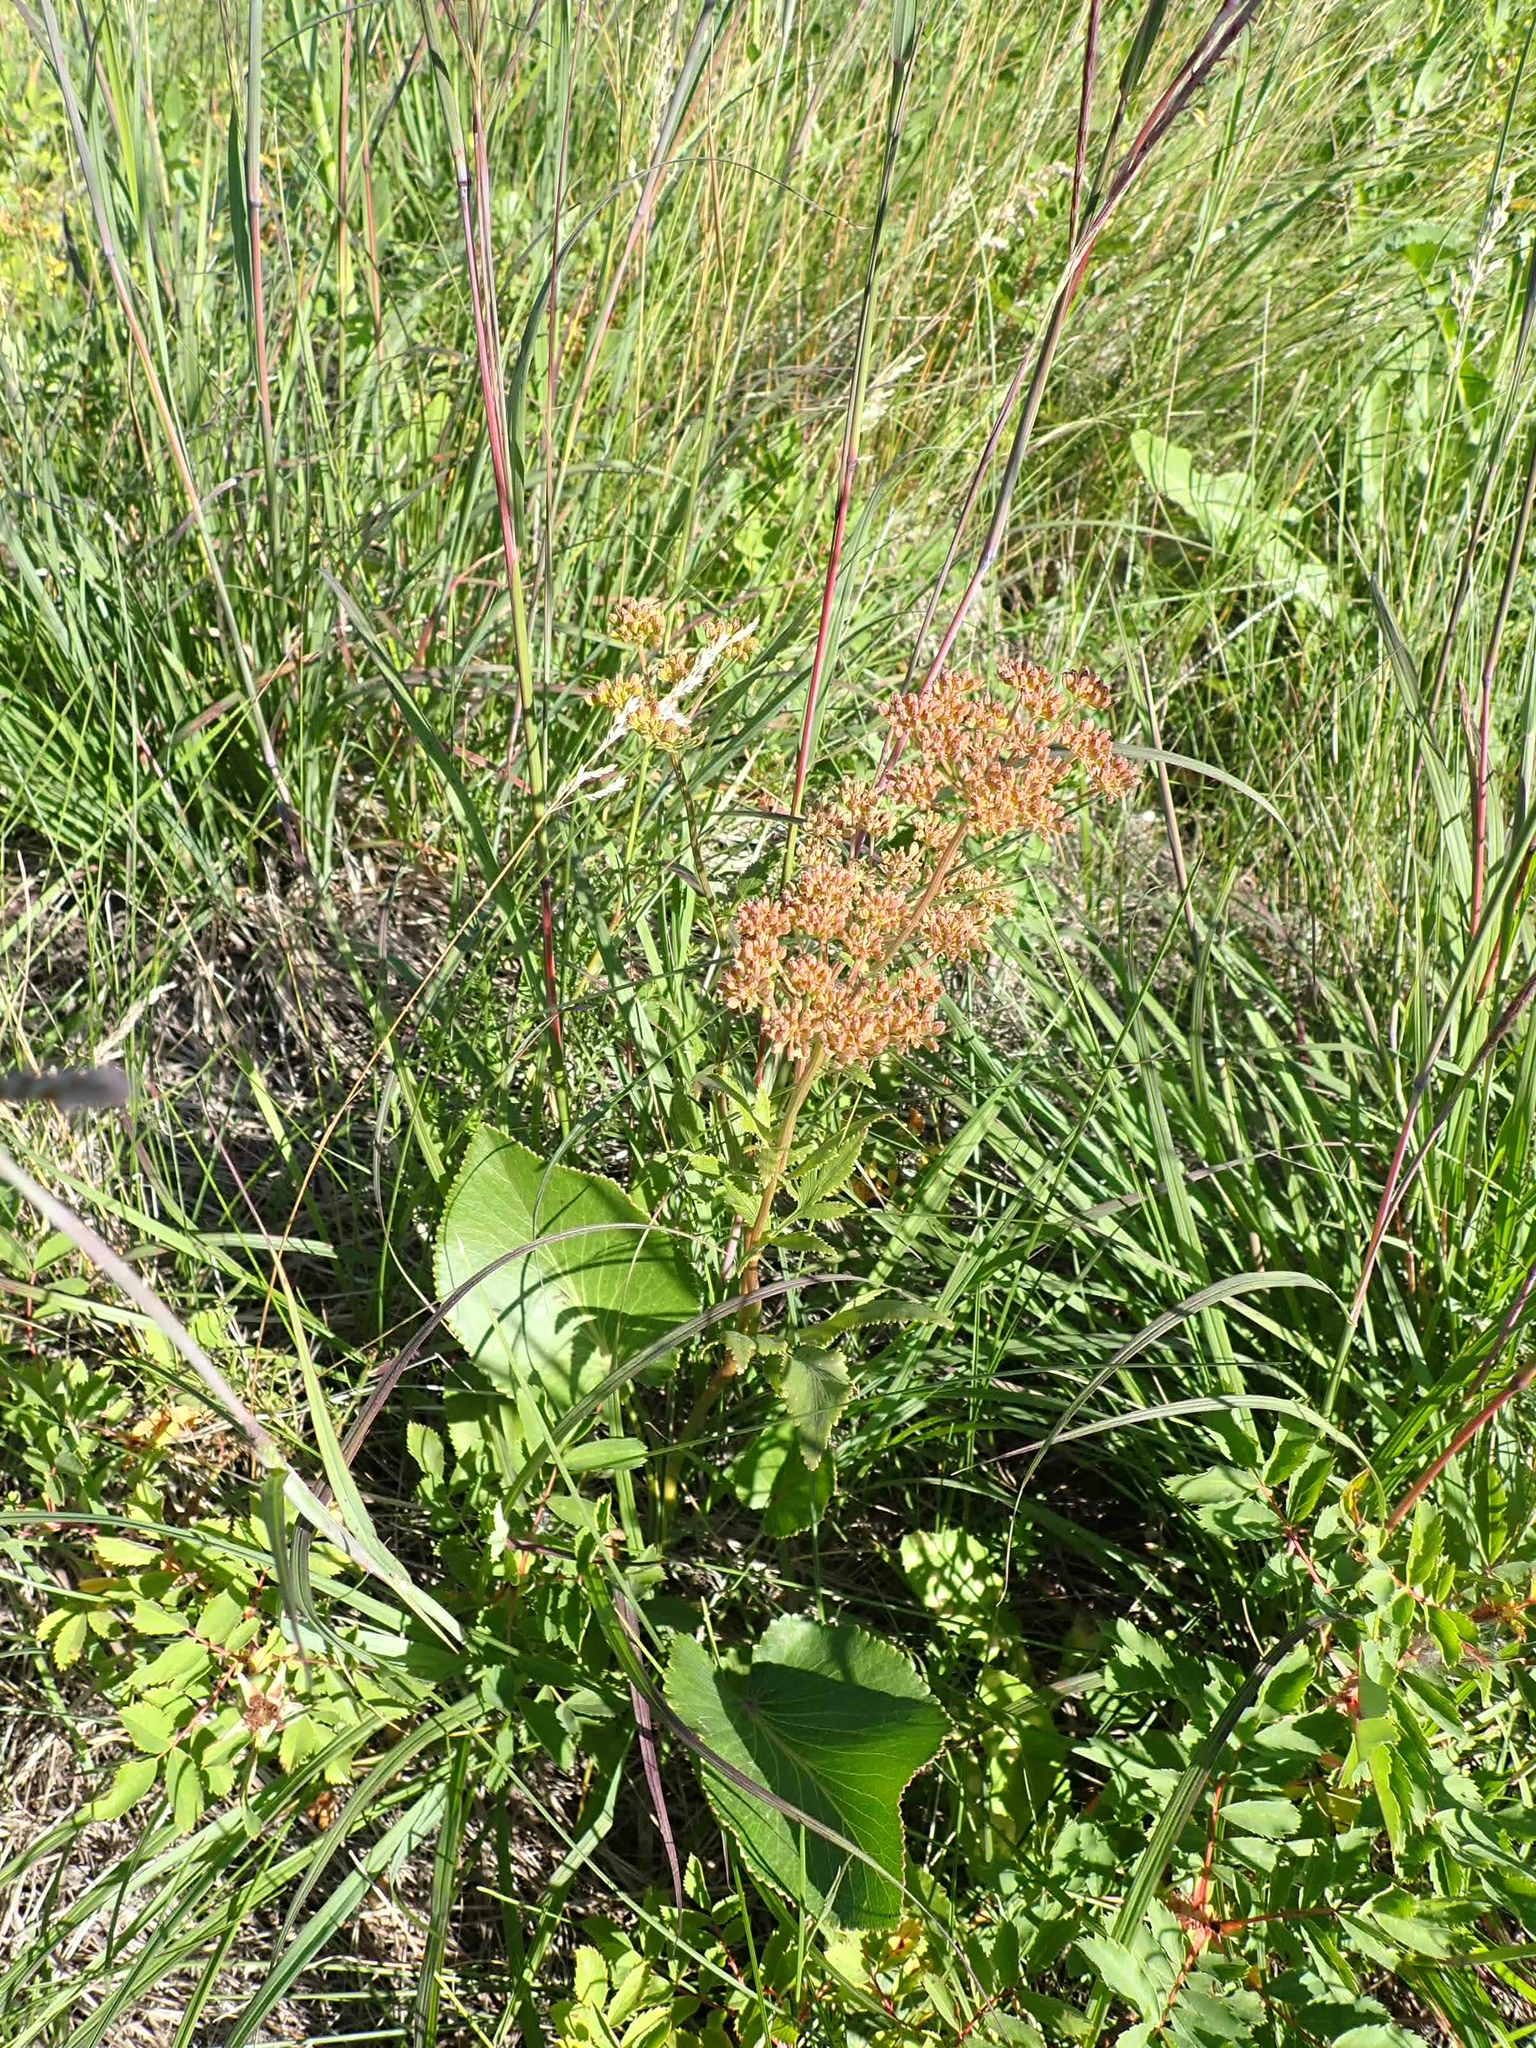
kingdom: Plantae
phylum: Tracheophyta
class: Magnoliopsida
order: Apiales
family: Apiaceae
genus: Zizia
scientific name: Zizia aptera
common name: Heart-leaved alexanders
